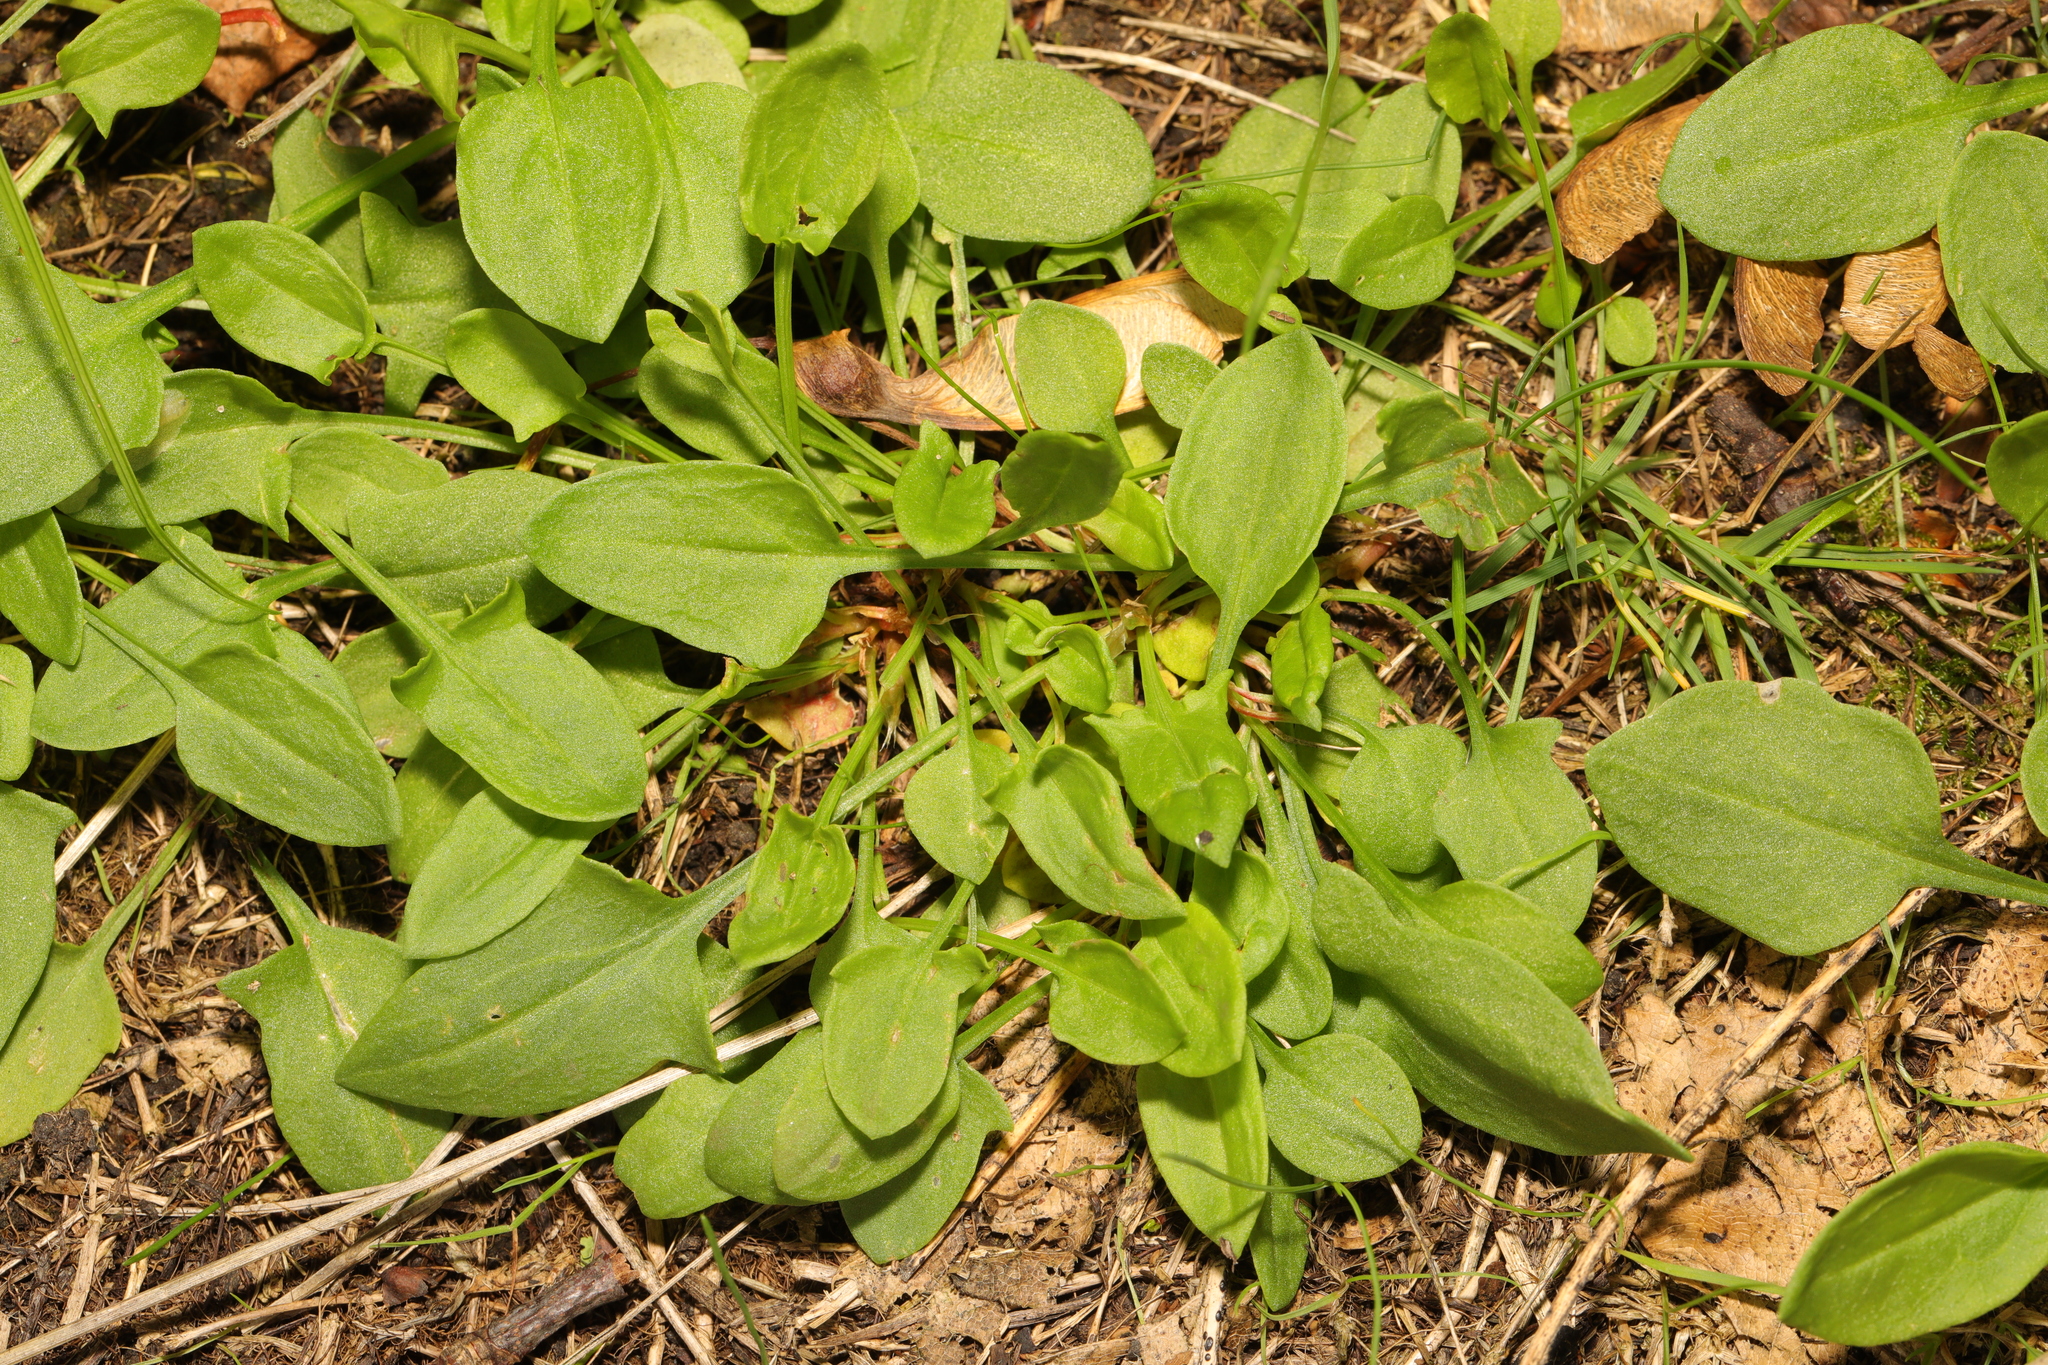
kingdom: Plantae
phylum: Tracheophyta
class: Magnoliopsida
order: Caryophyllales
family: Polygonaceae
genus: Rumex
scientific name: Rumex acetosella
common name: Common sheep sorrel
